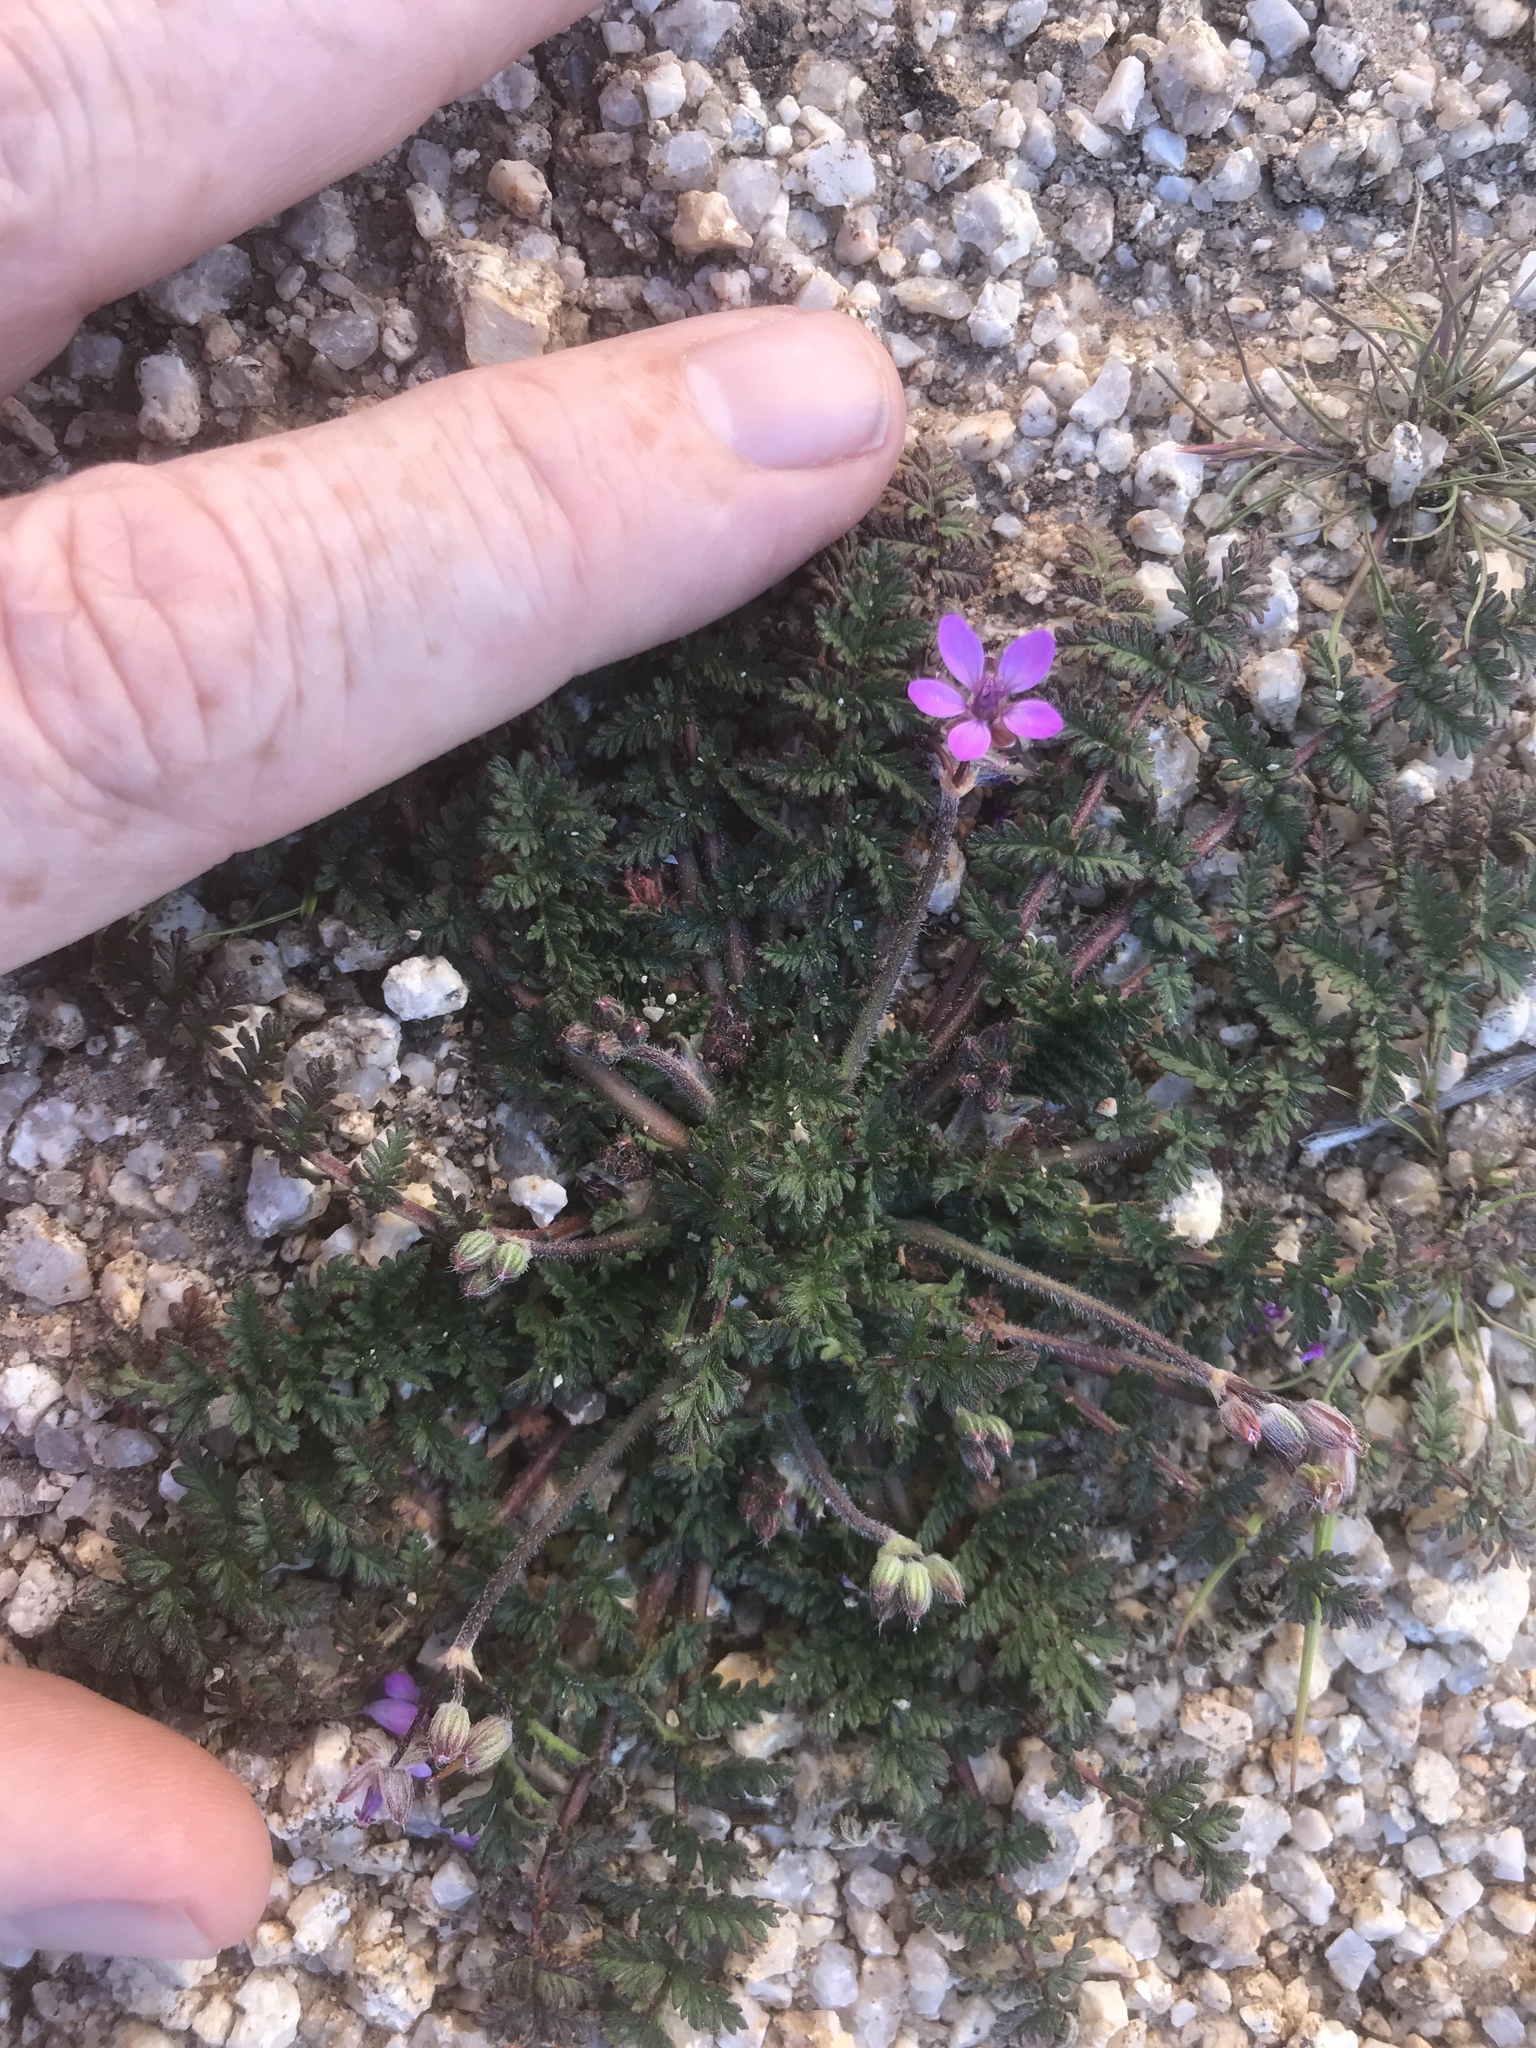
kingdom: Plantae
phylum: Tracheophyta
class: Magnoliopsida
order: Geraniales
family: Geraniaceae
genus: Erodium
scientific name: Erodium cicutarium
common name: Common stork's-bill
